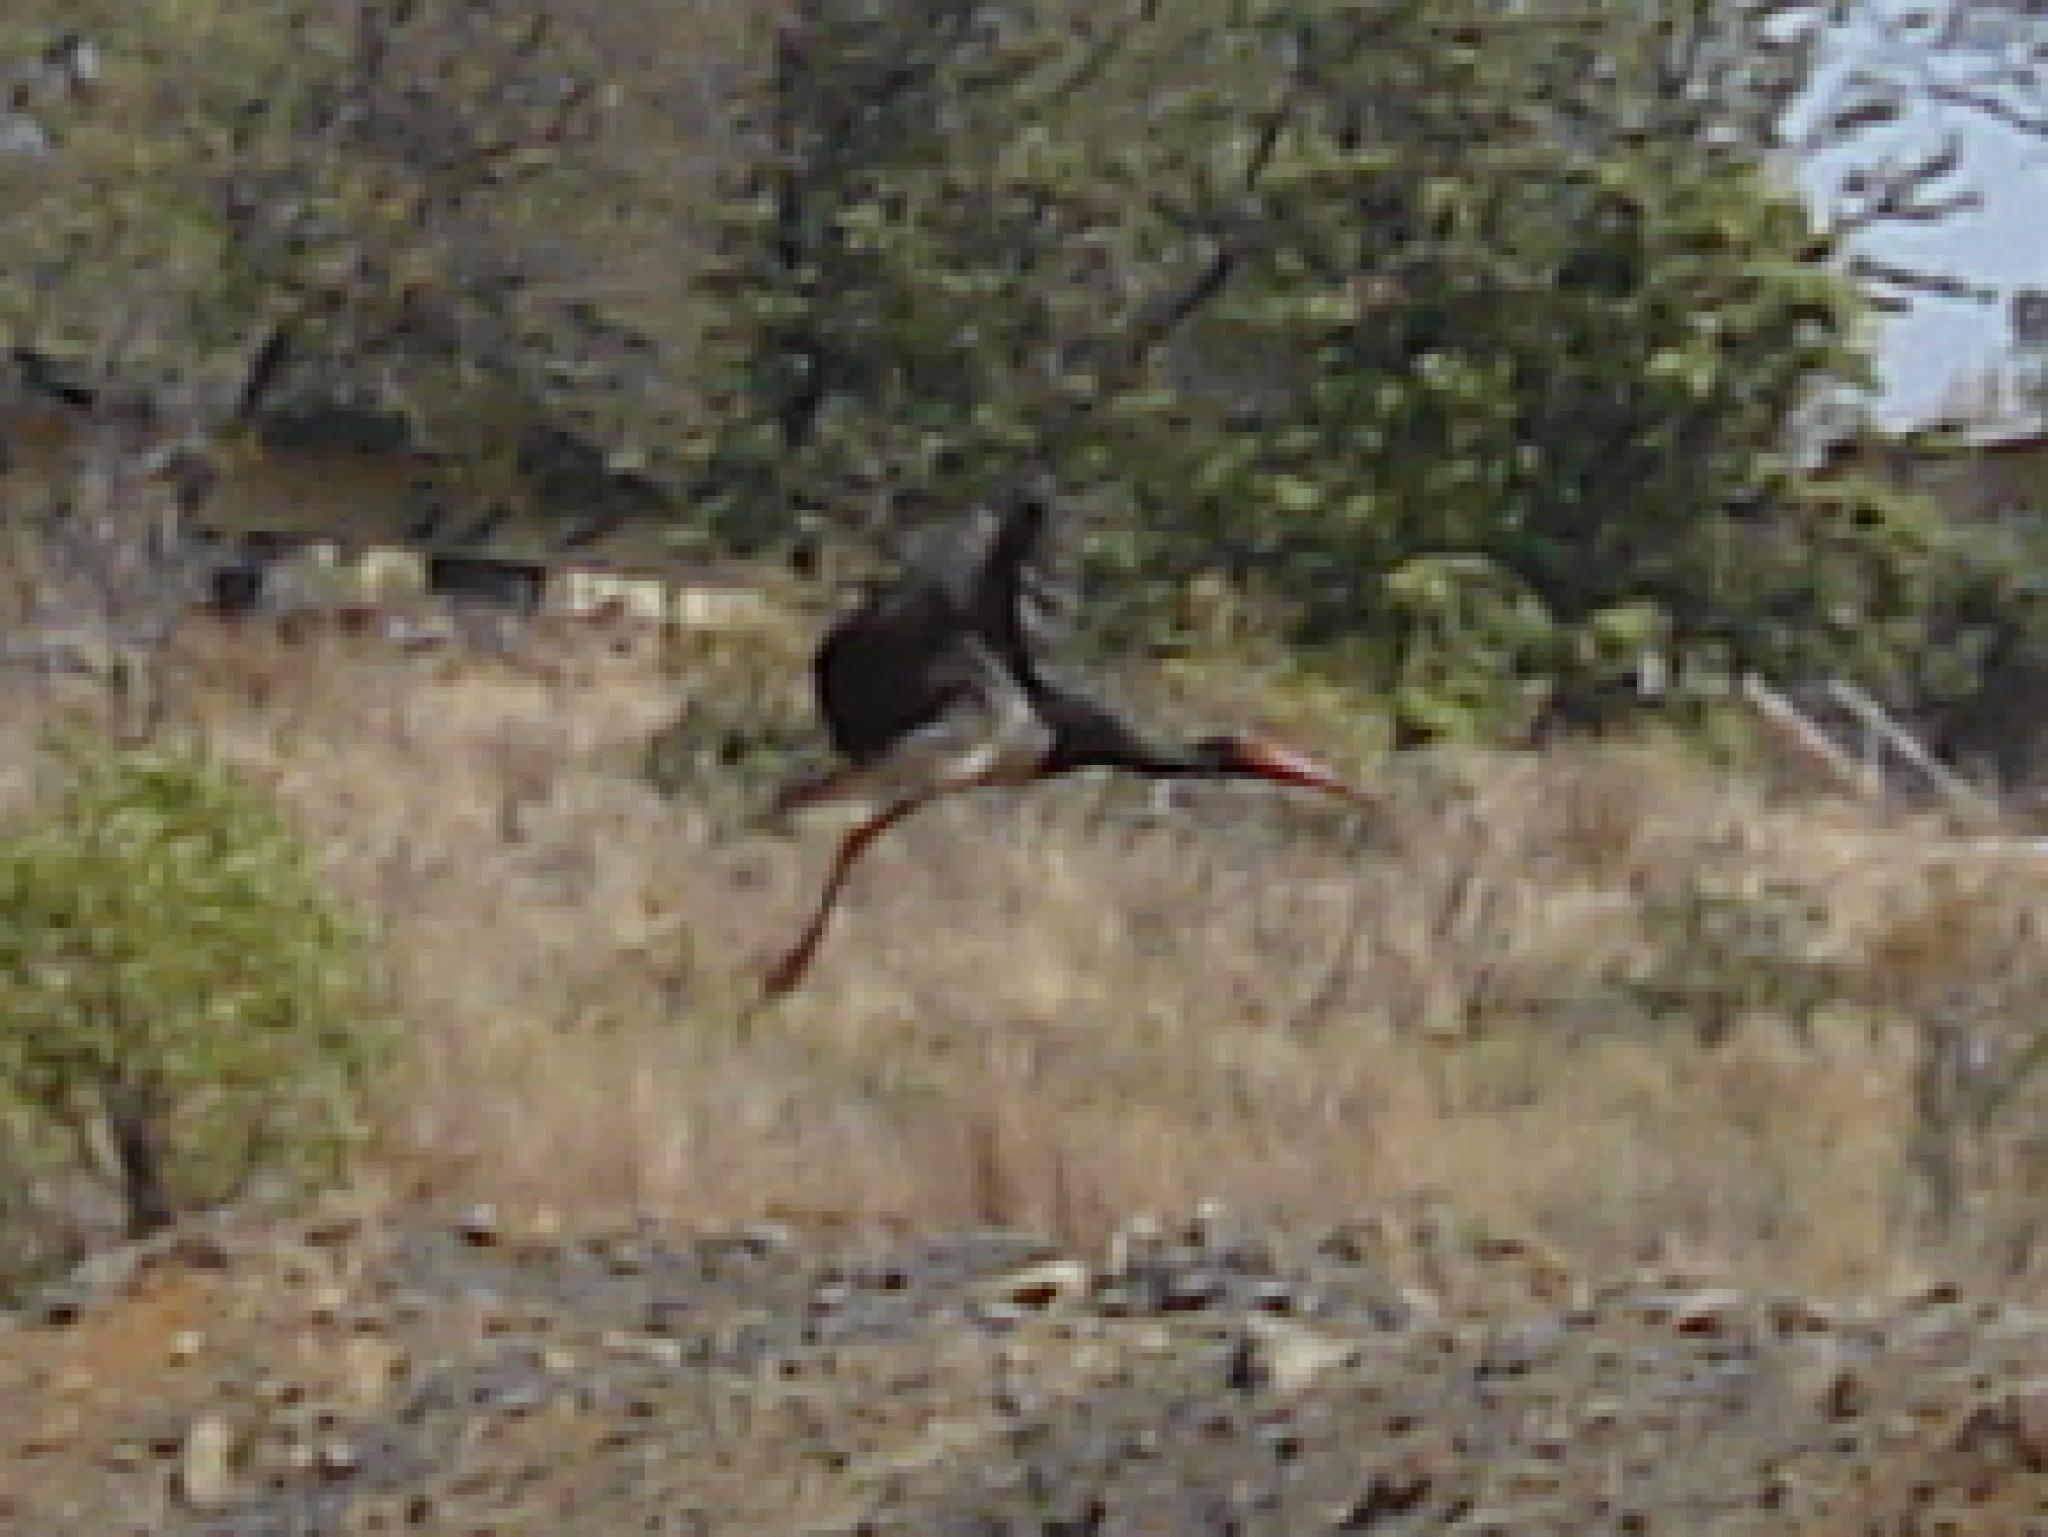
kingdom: Animalia
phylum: Chordata
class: Aves
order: Ciconiiformes
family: Ciconiidae
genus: Ciconia
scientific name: Ciconia nigra
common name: Black stork
